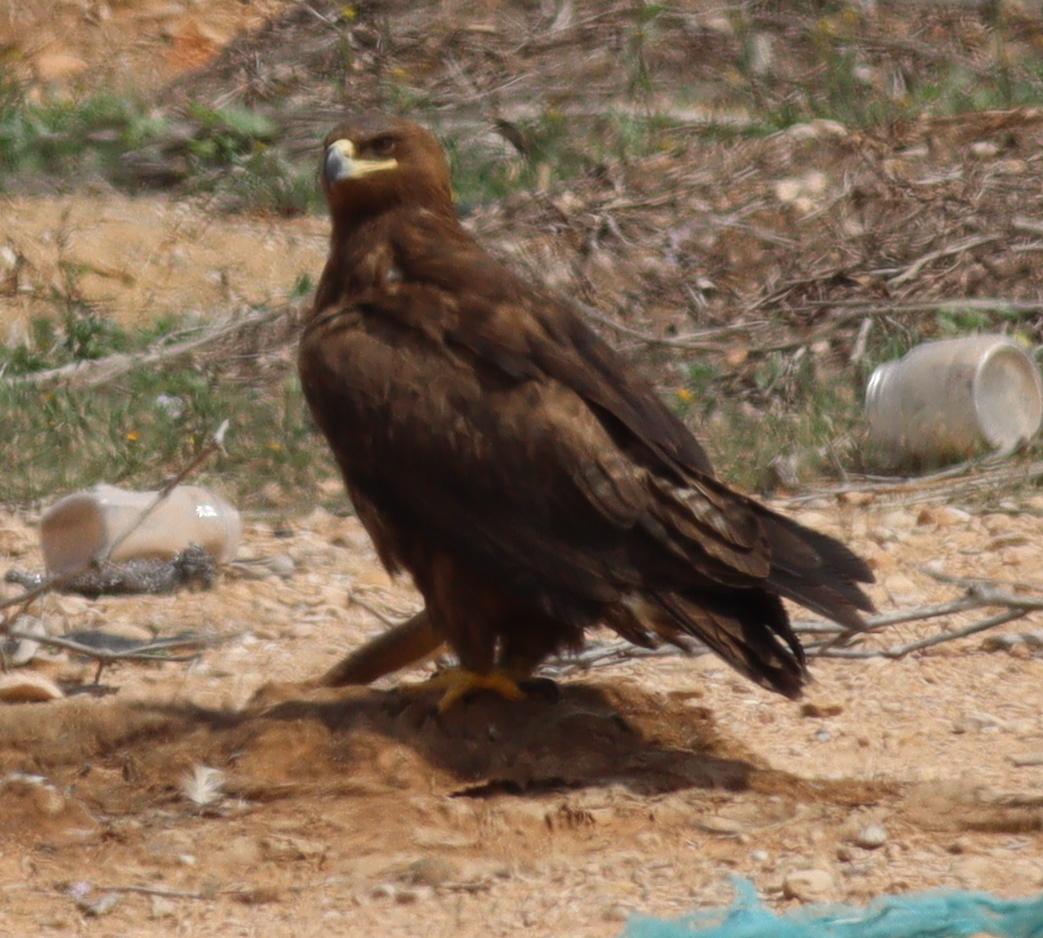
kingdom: Animalia
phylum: Chordata
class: Aves
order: Accipitriformes
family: Accipitridae
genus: Aquila
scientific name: Aquila nipalensis
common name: Steppe eagle
